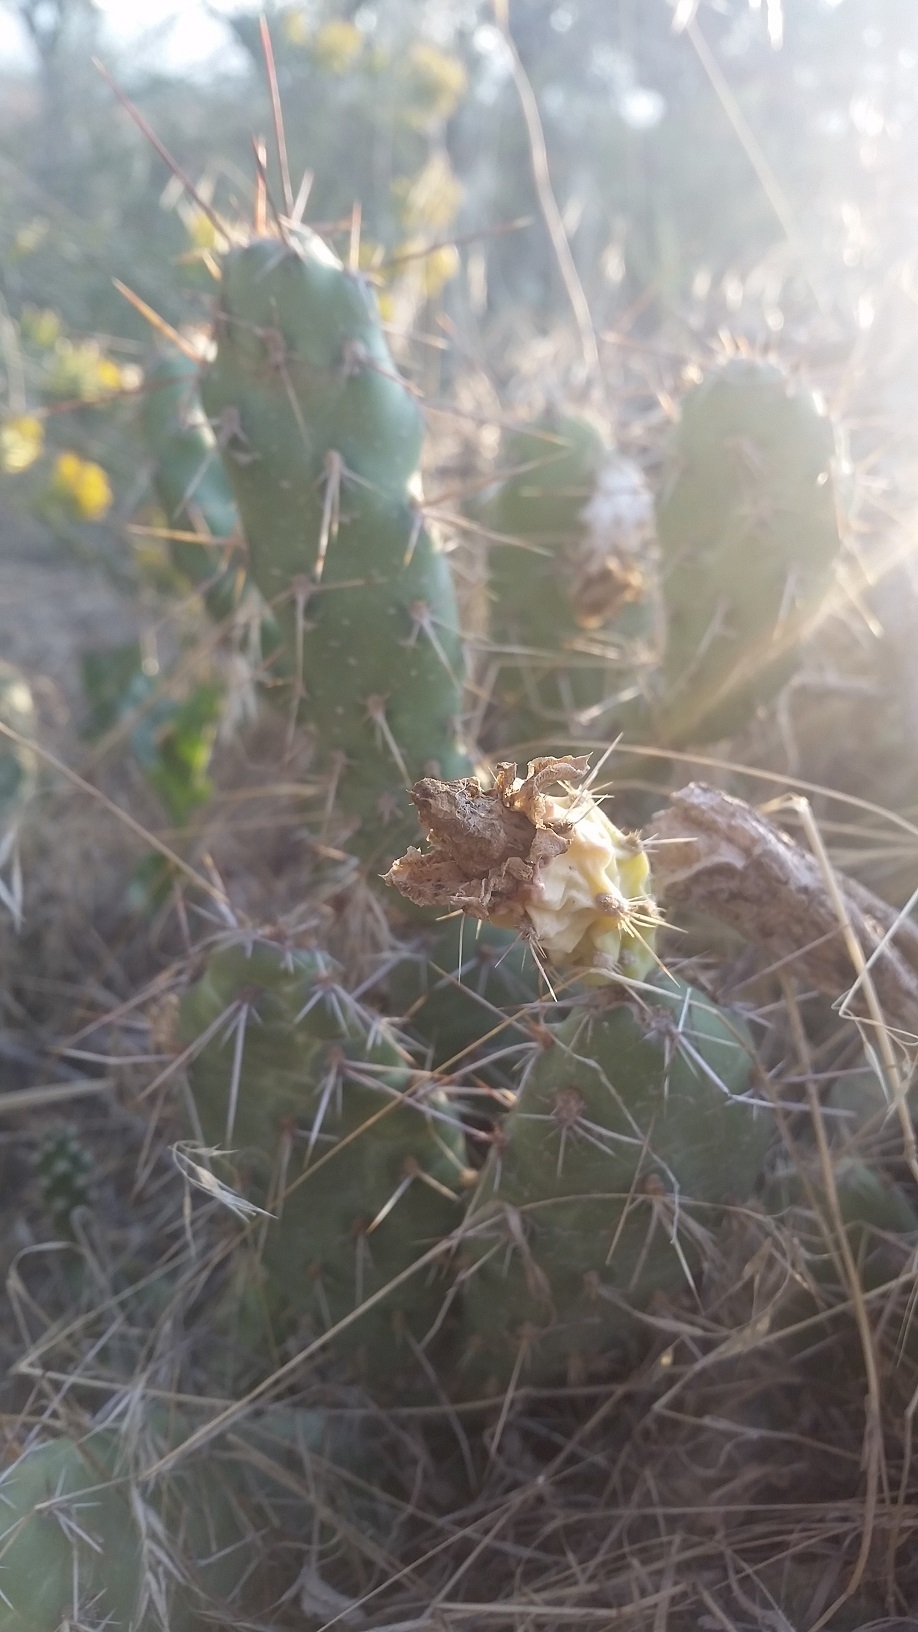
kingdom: Plantae
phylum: Tracheophyta
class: Magnoliopsida
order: Caryophyllales
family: Cactaceae
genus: Opuntia
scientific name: Opuntia fragilis
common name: Brittle cactus
